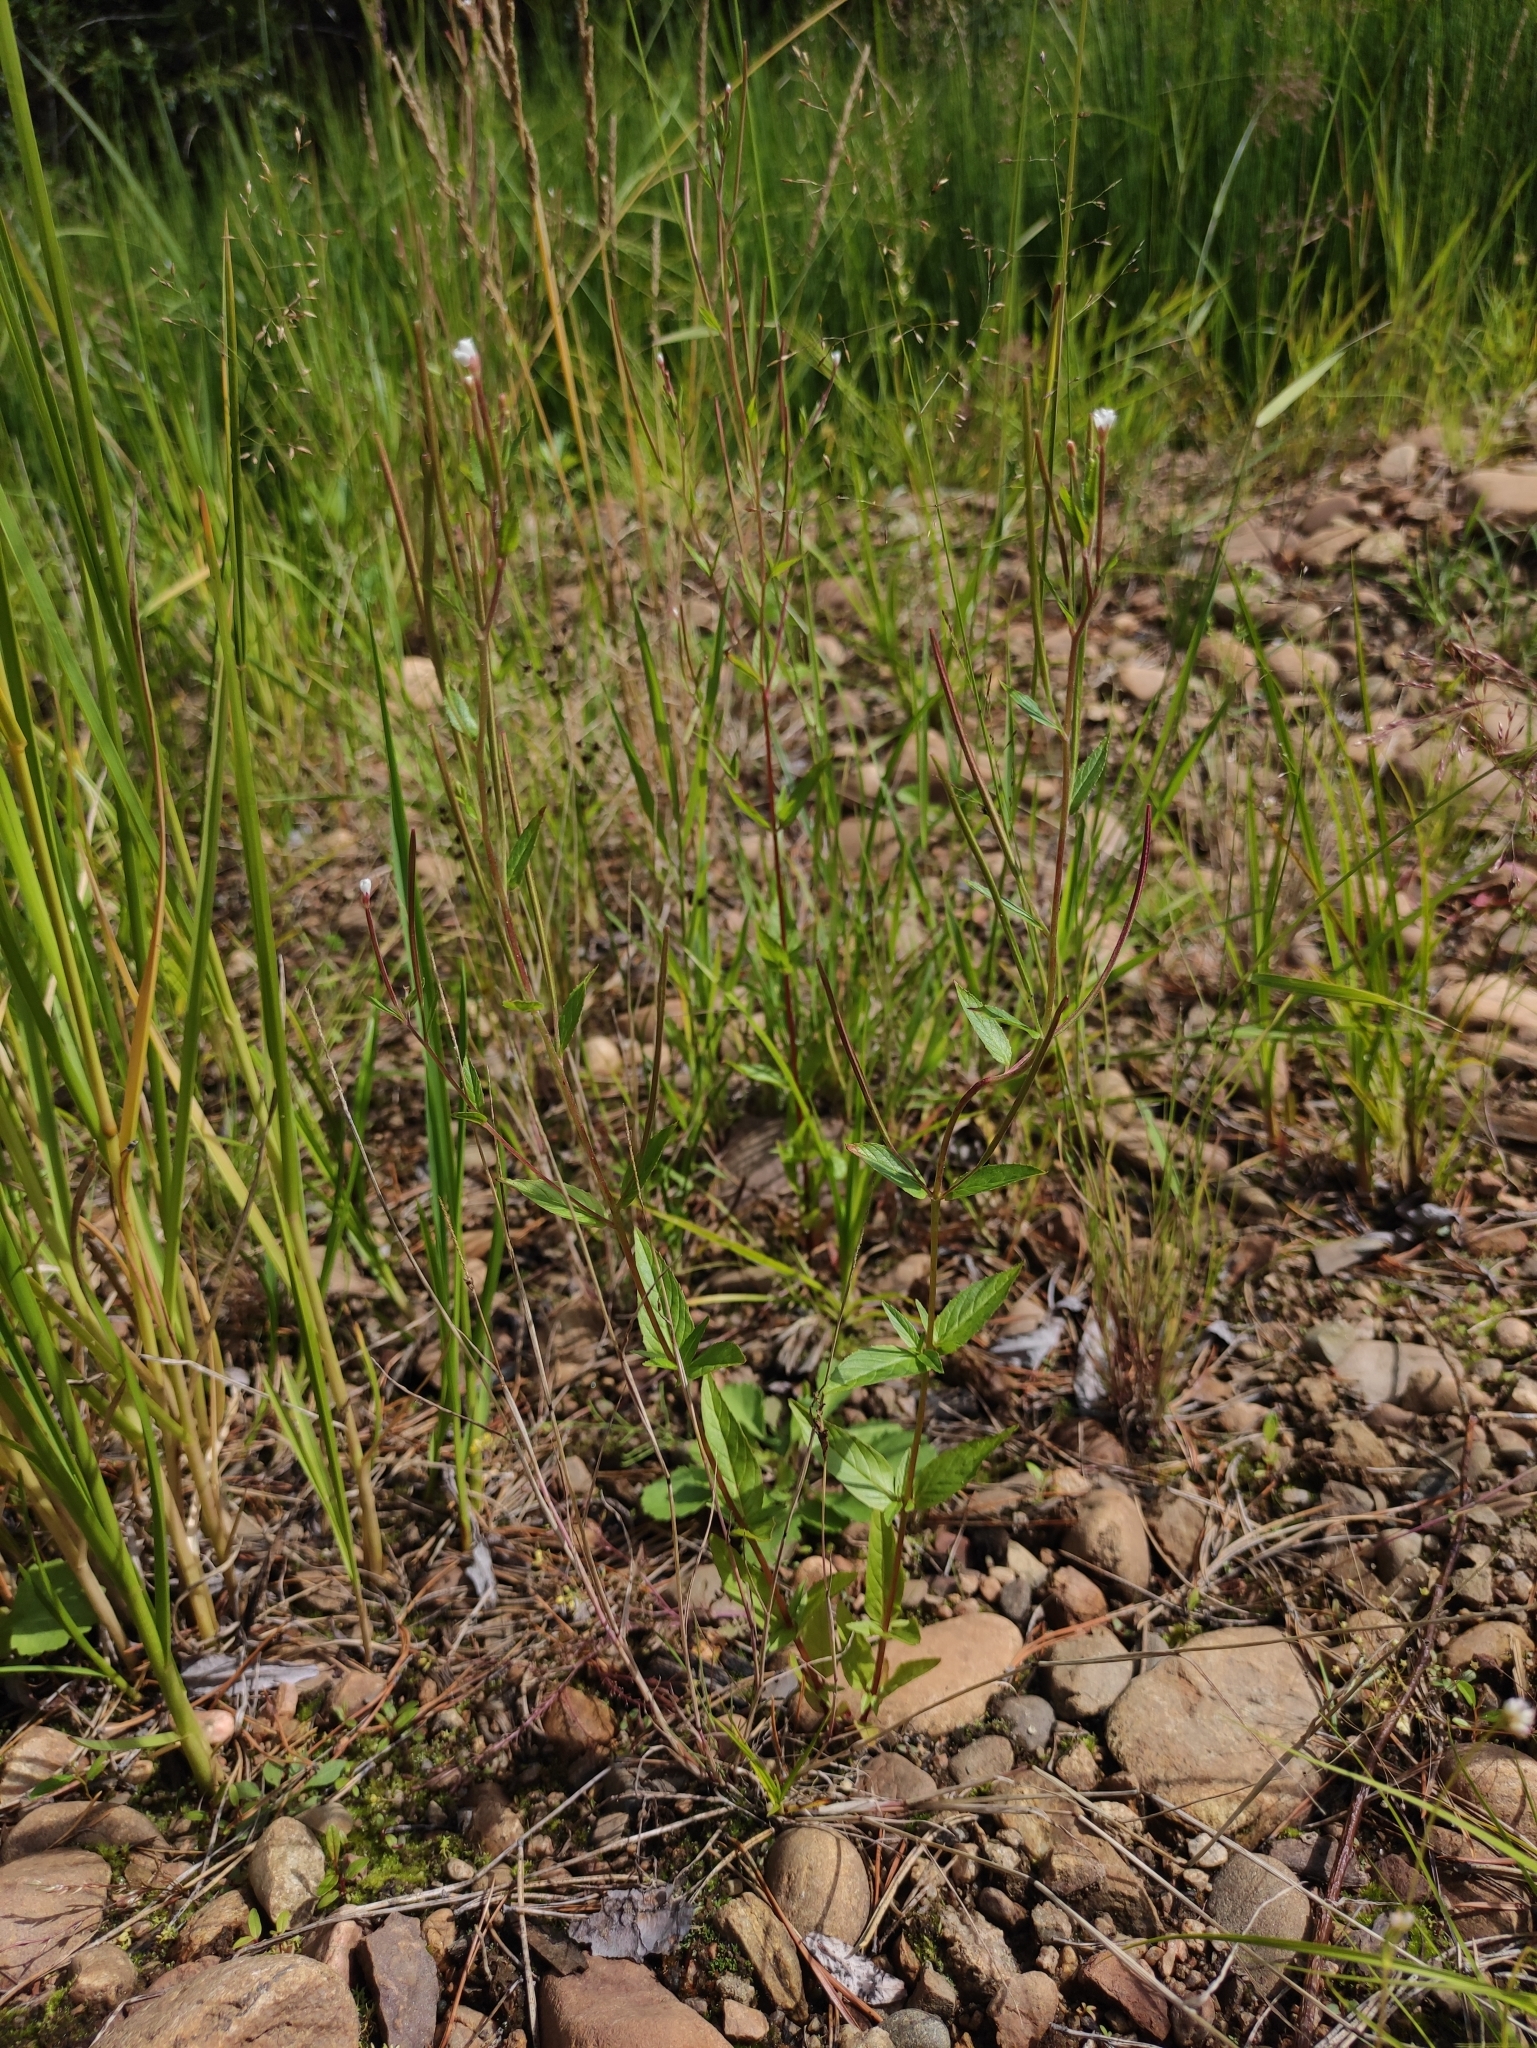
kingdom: Plantae
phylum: Tracheophyta
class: Magnoliopsida
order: Myrtales
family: Onagraceae
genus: Epilobium
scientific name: Epilobium pseudorubescens
